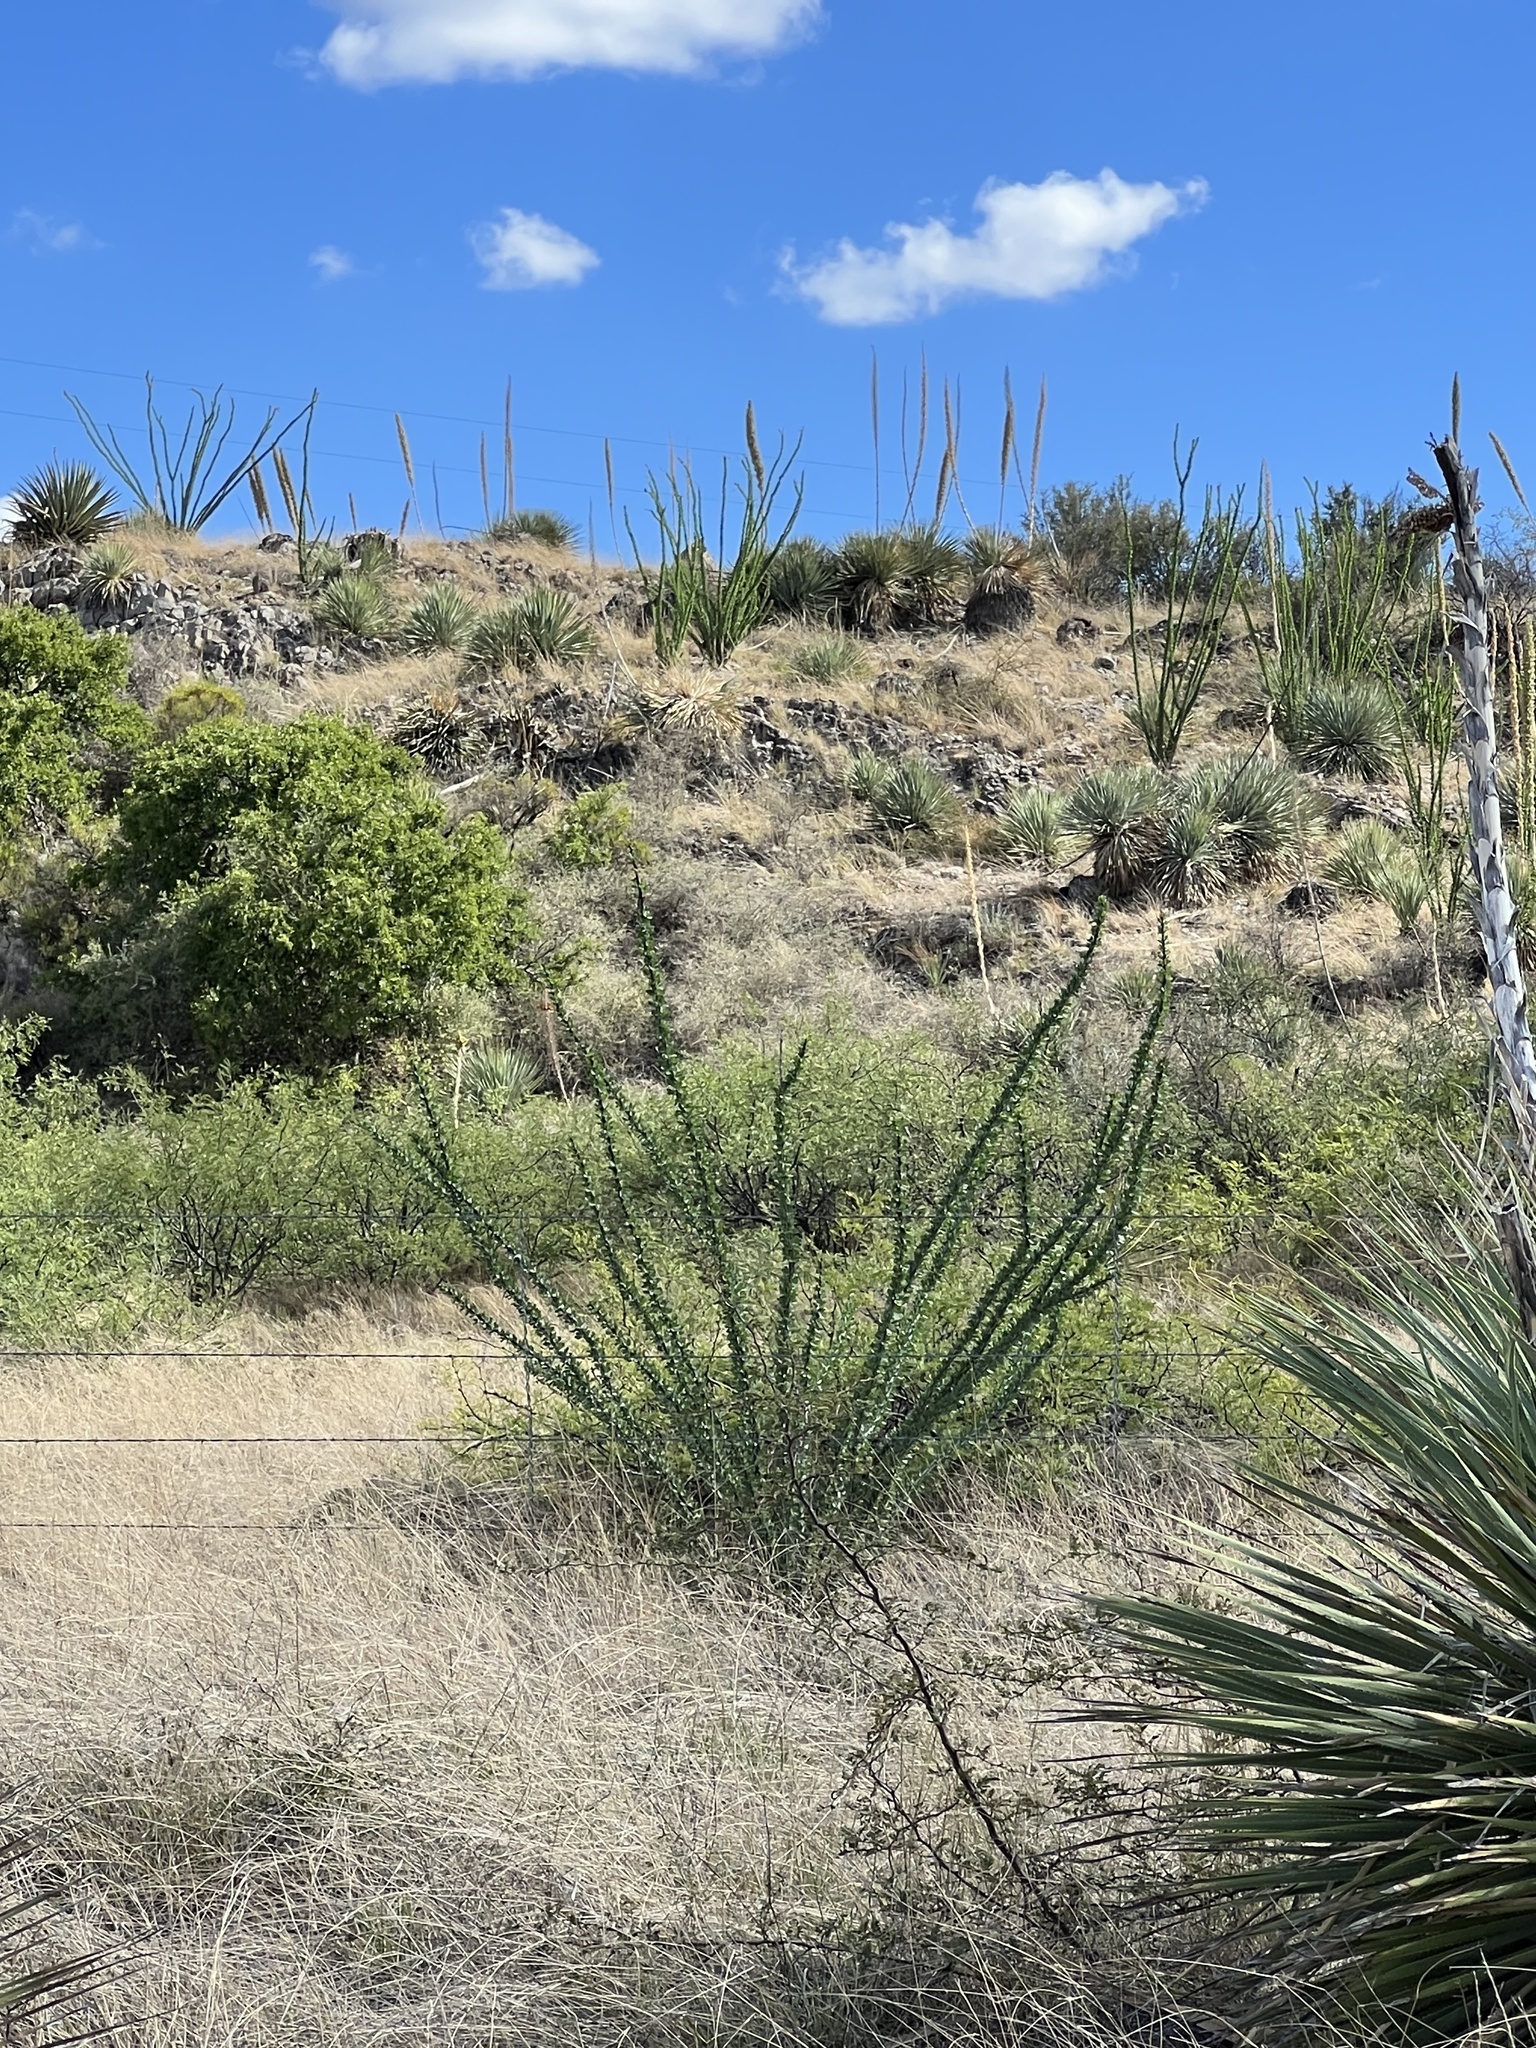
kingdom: Plantae
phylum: Tracheophyta
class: Magnoliopsida
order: Ericales
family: Fouquieriaceae
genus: Fouquieria
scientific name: Fouquieria splendens
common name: Vine-cactus
